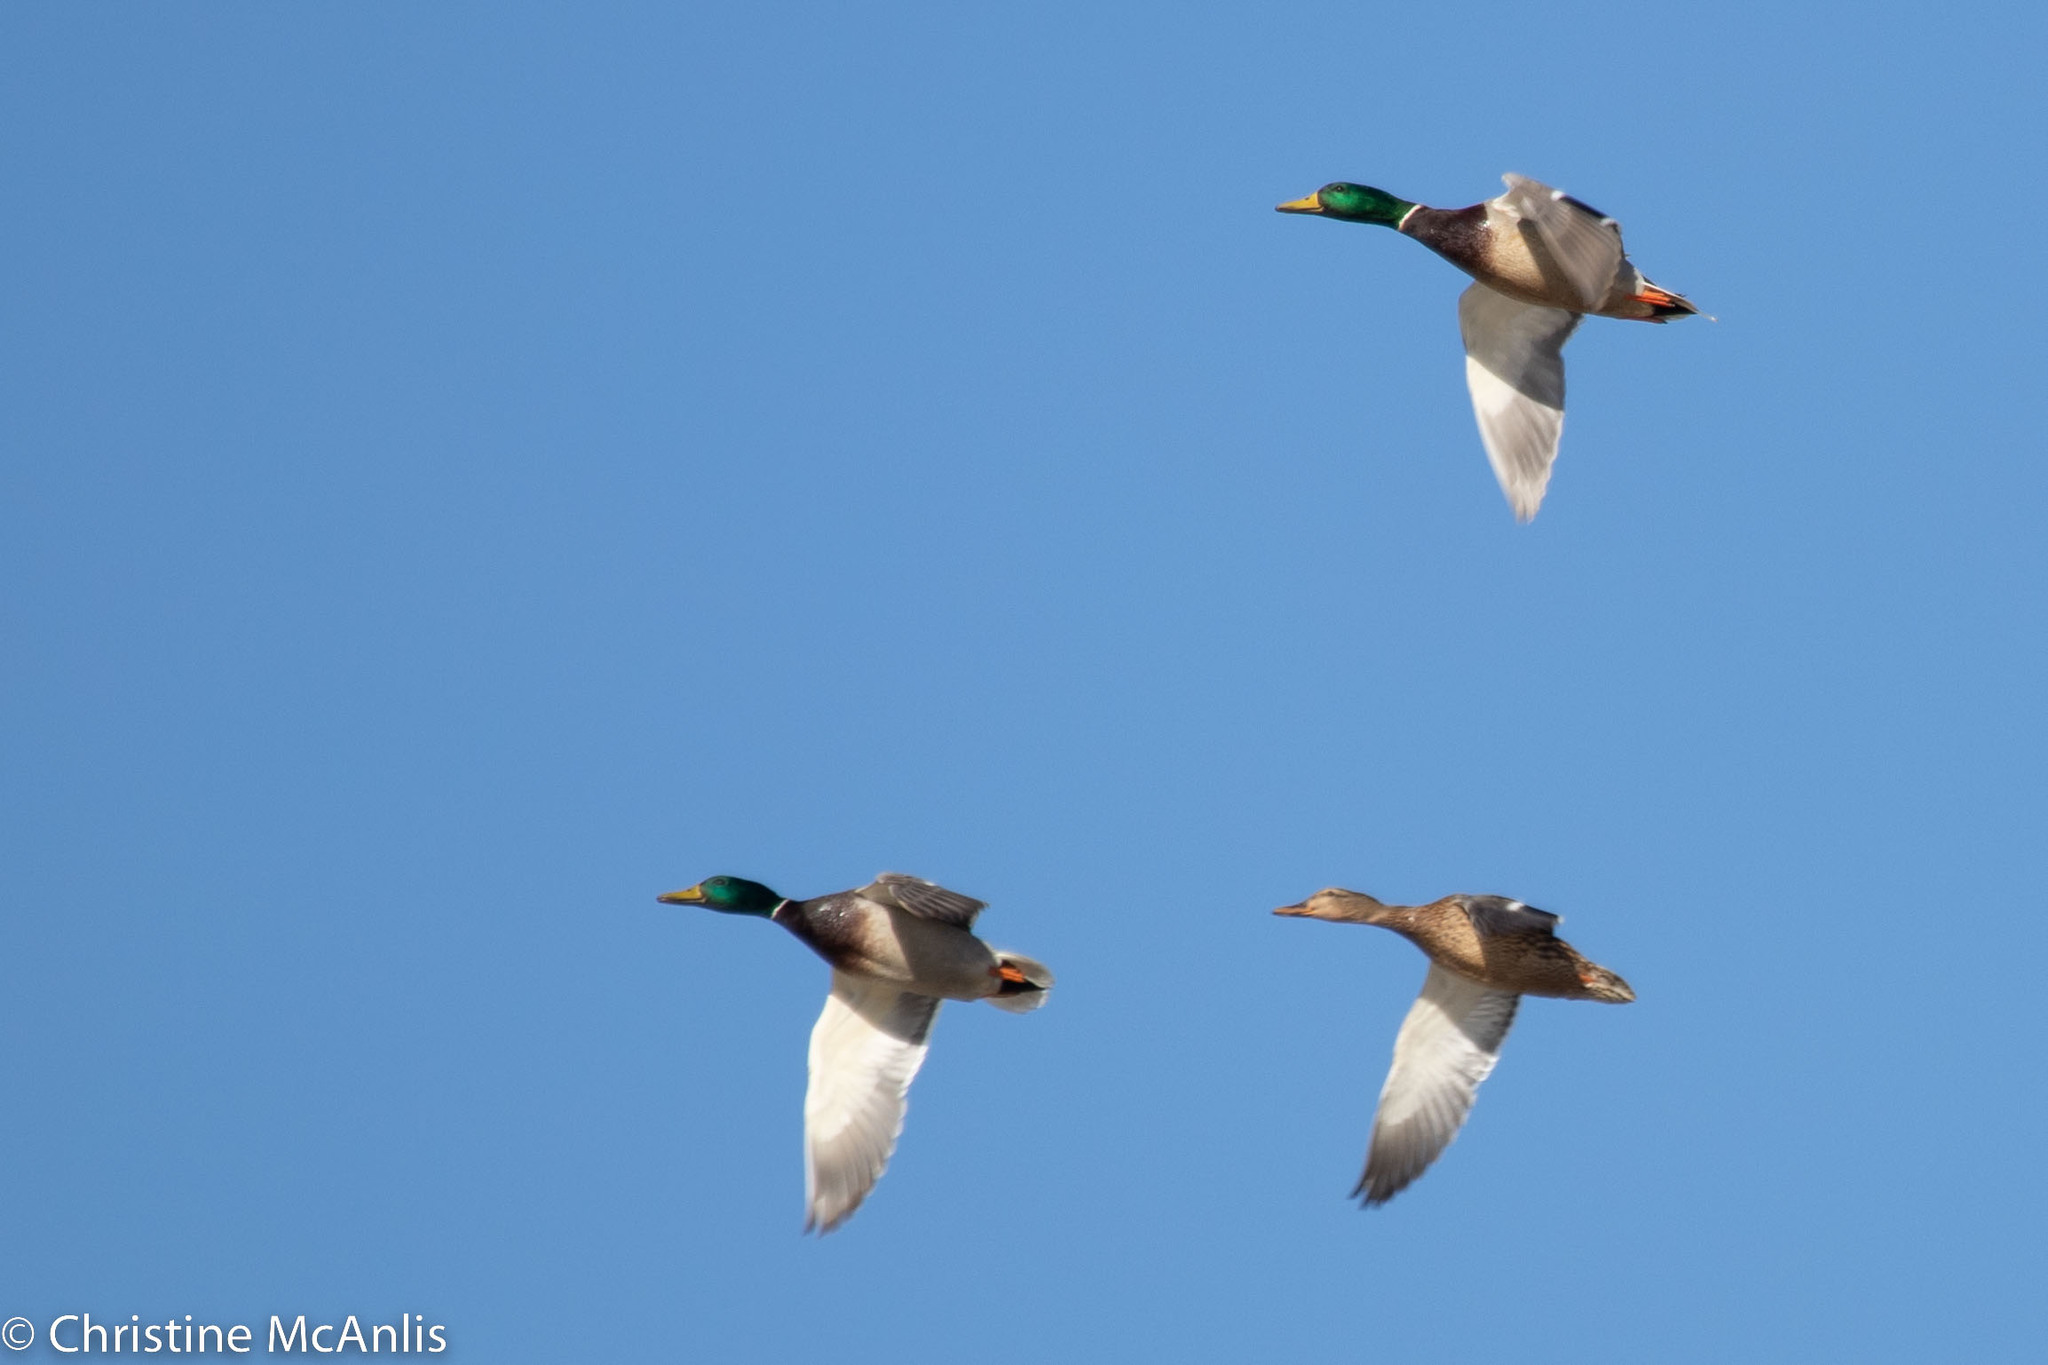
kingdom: Animalia
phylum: Chordata
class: Aves
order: Anseriformes
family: Anatidae
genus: Anas
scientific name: Anas platyrhynchos
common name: Mallard
